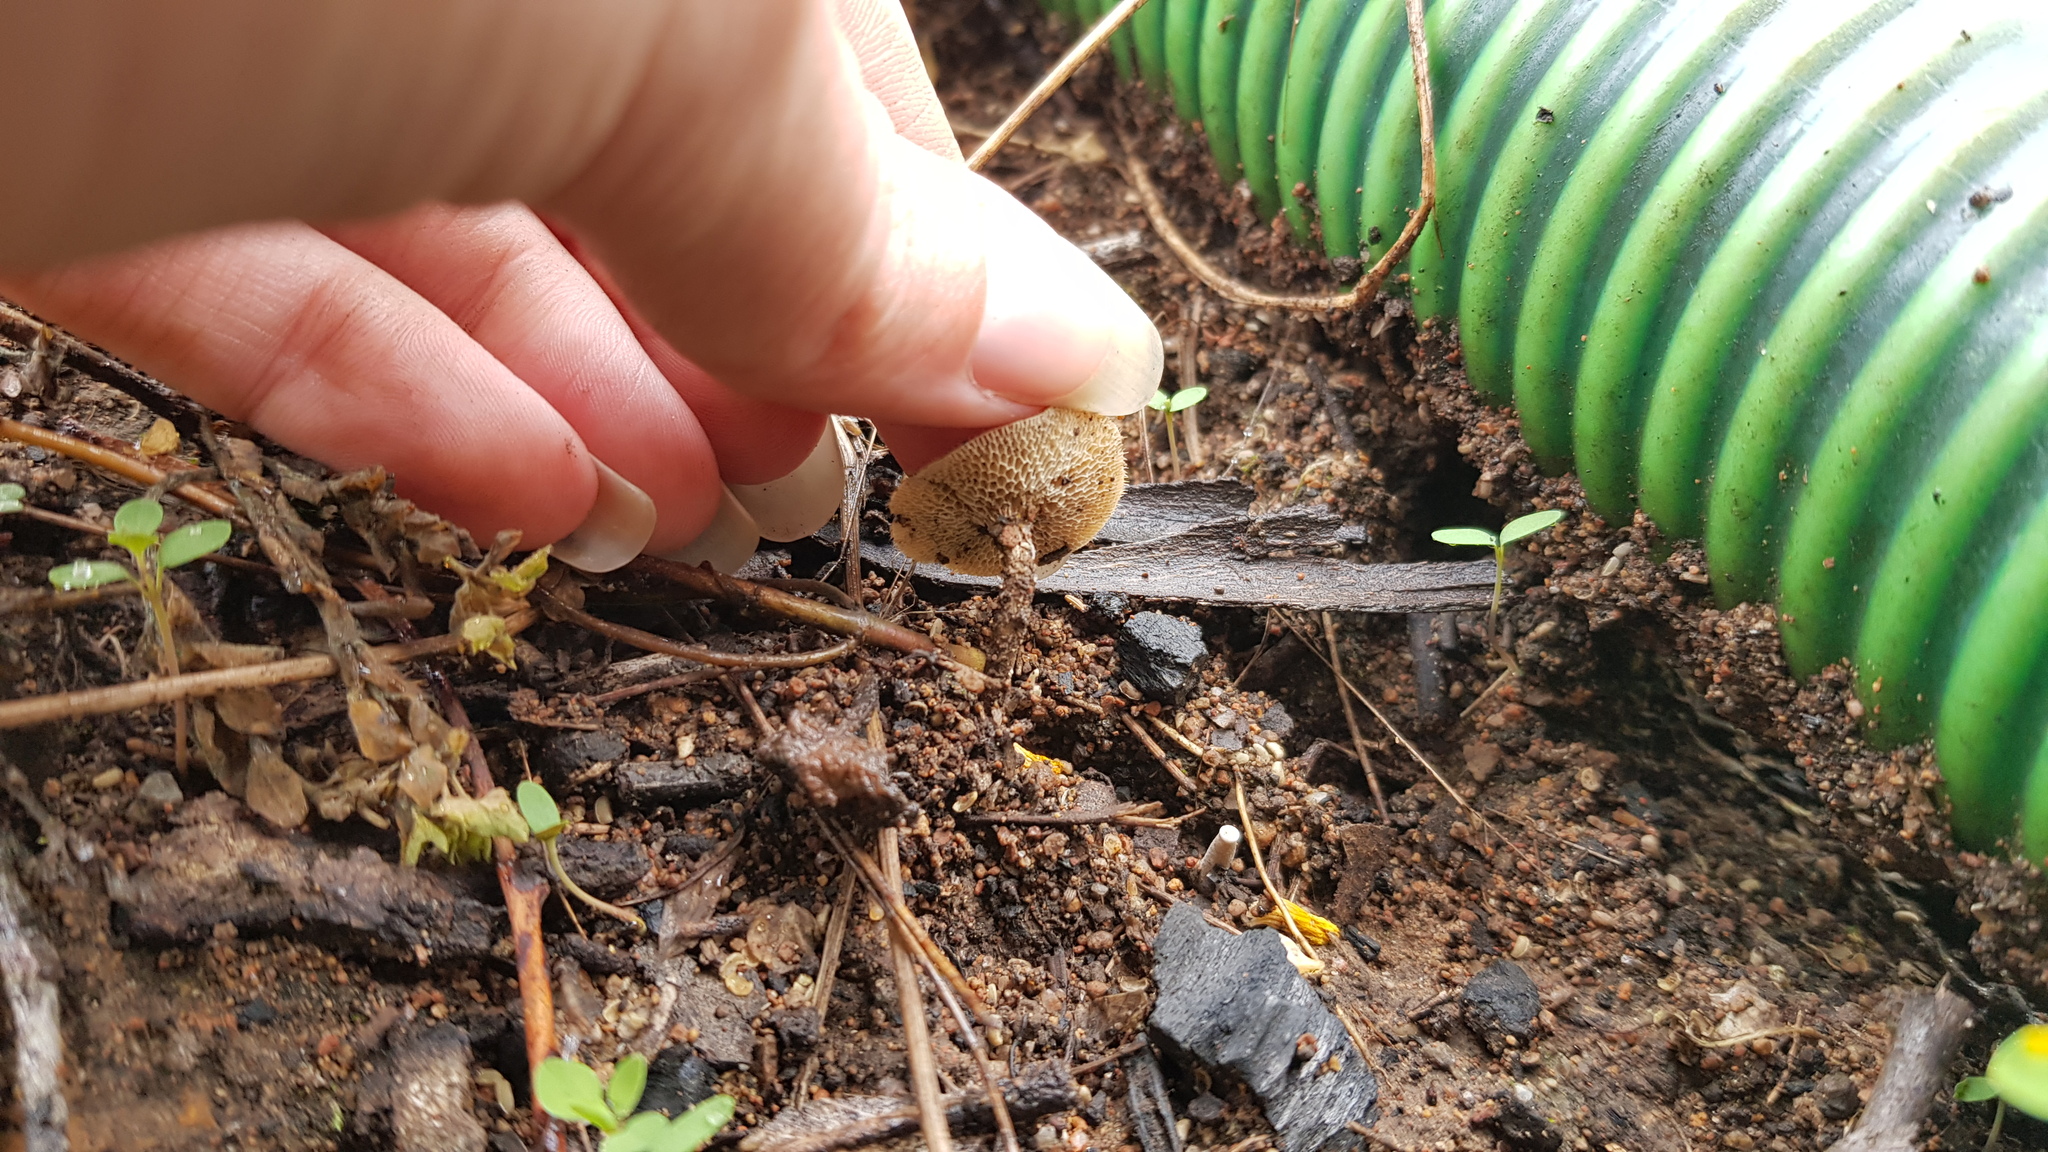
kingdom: Fungi
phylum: Basidiomycota
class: Agaricomycetes
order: Polyporales
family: Polyporaceae
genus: Lentinus
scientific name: Lentinus arcularius
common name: Spring polypore
